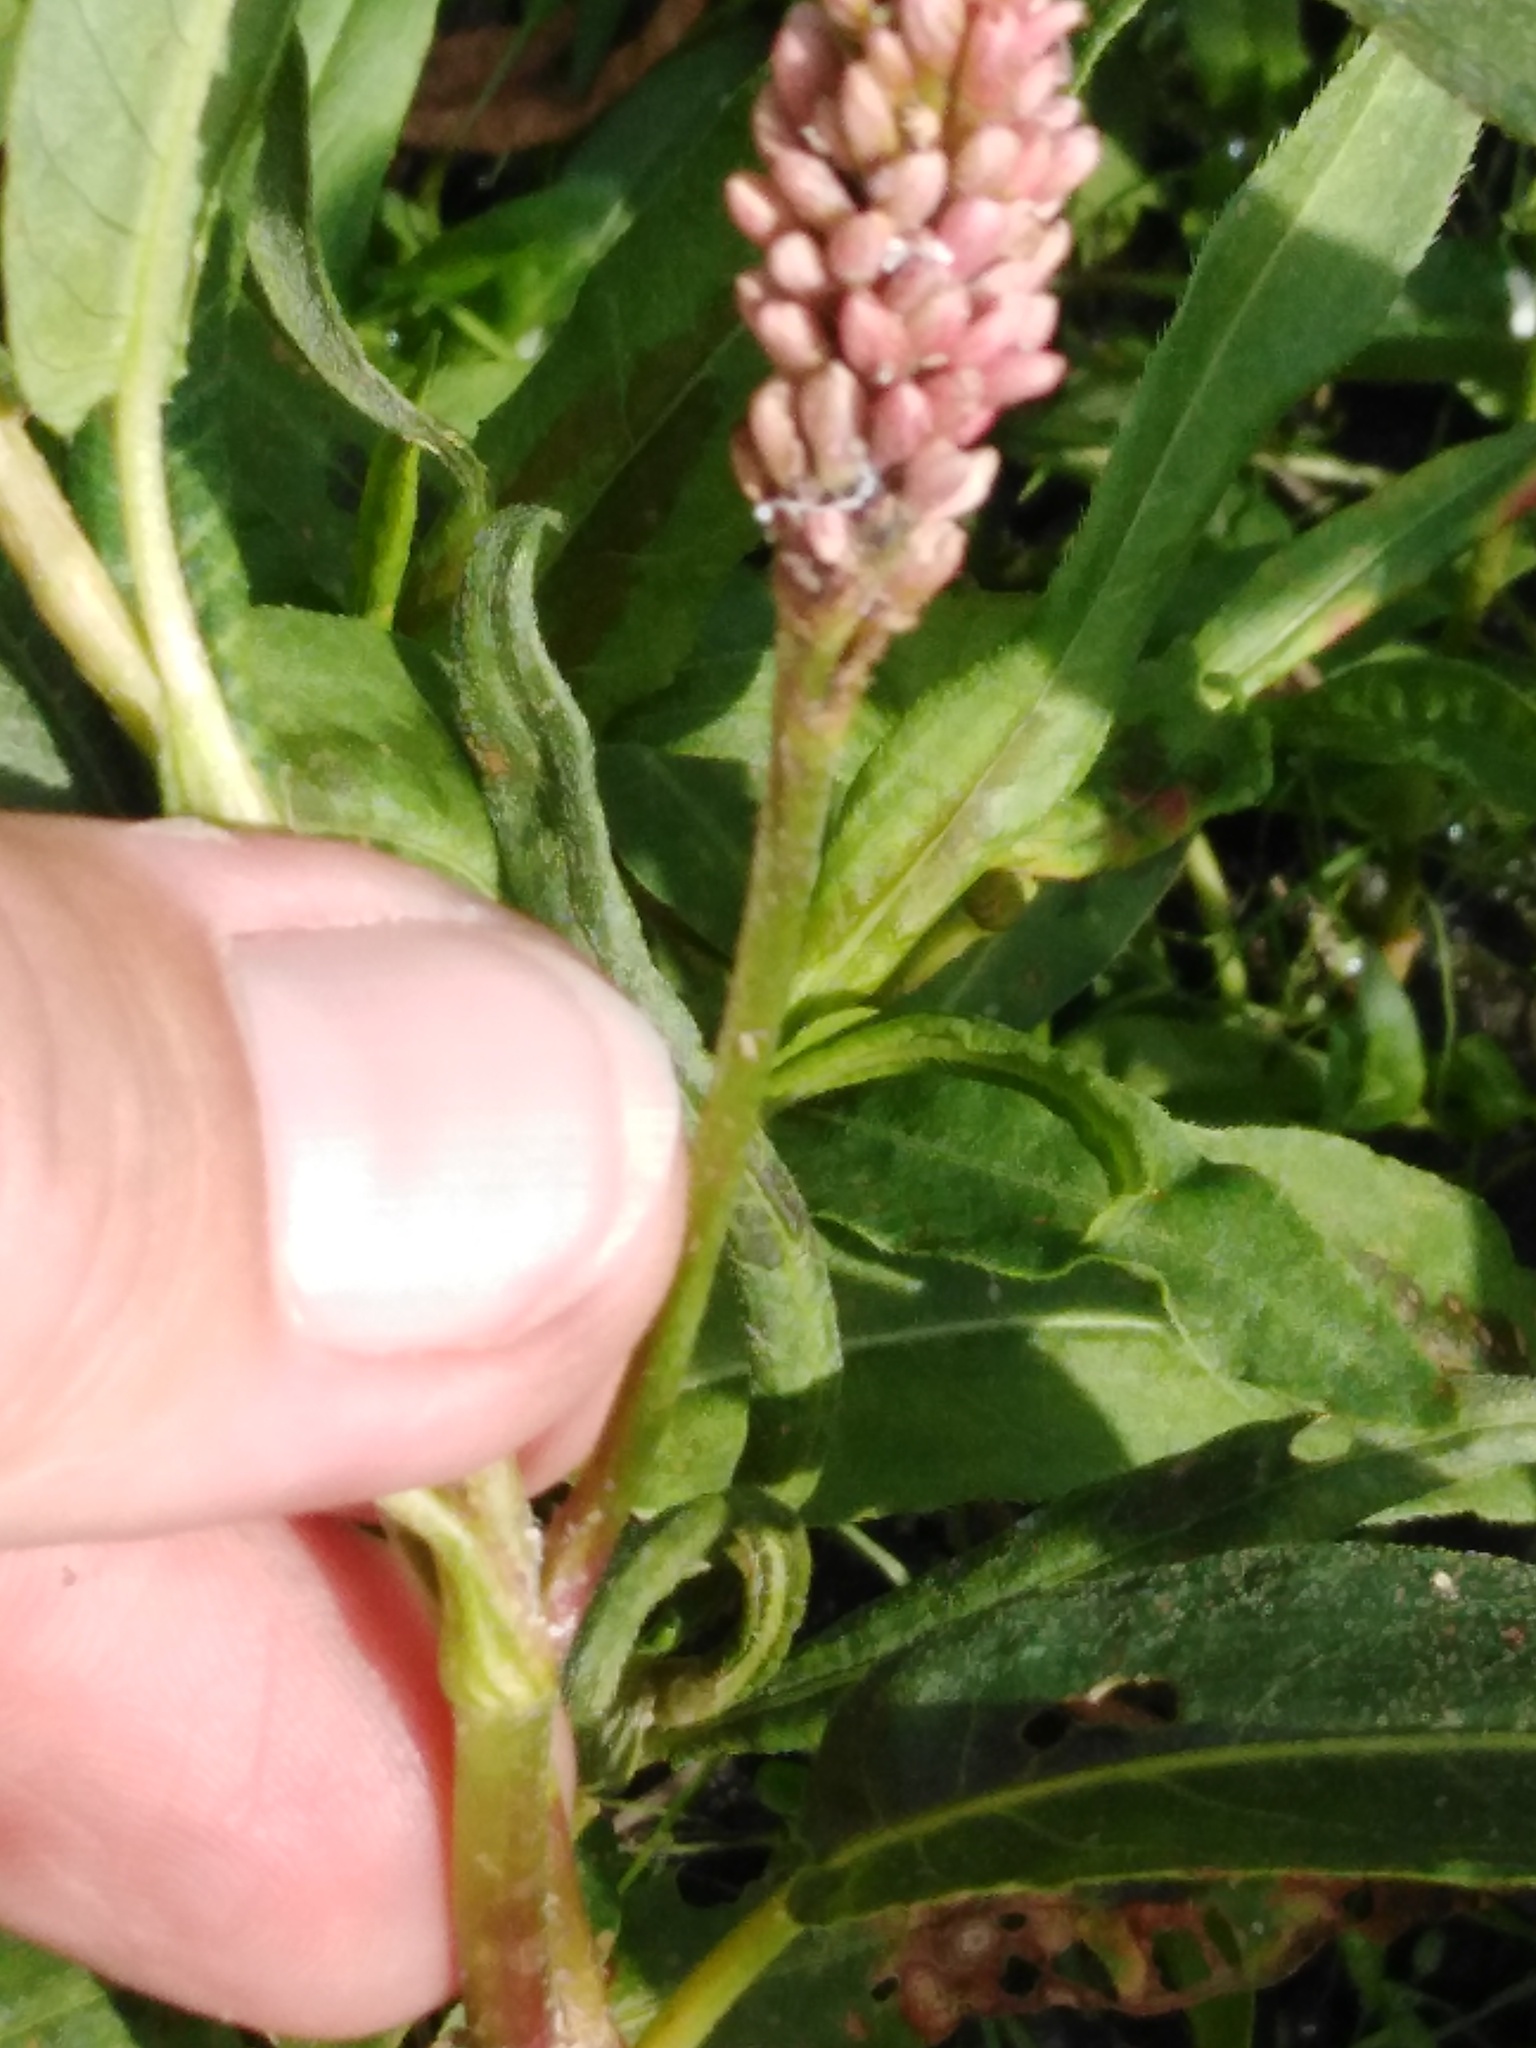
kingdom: Plantae
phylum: Tracheophyta
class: Magnoliopsida
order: Caryophyllales
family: Polygonaceae
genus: Persicaria
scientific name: Persicaria amphibia
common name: Amphibious bistort
